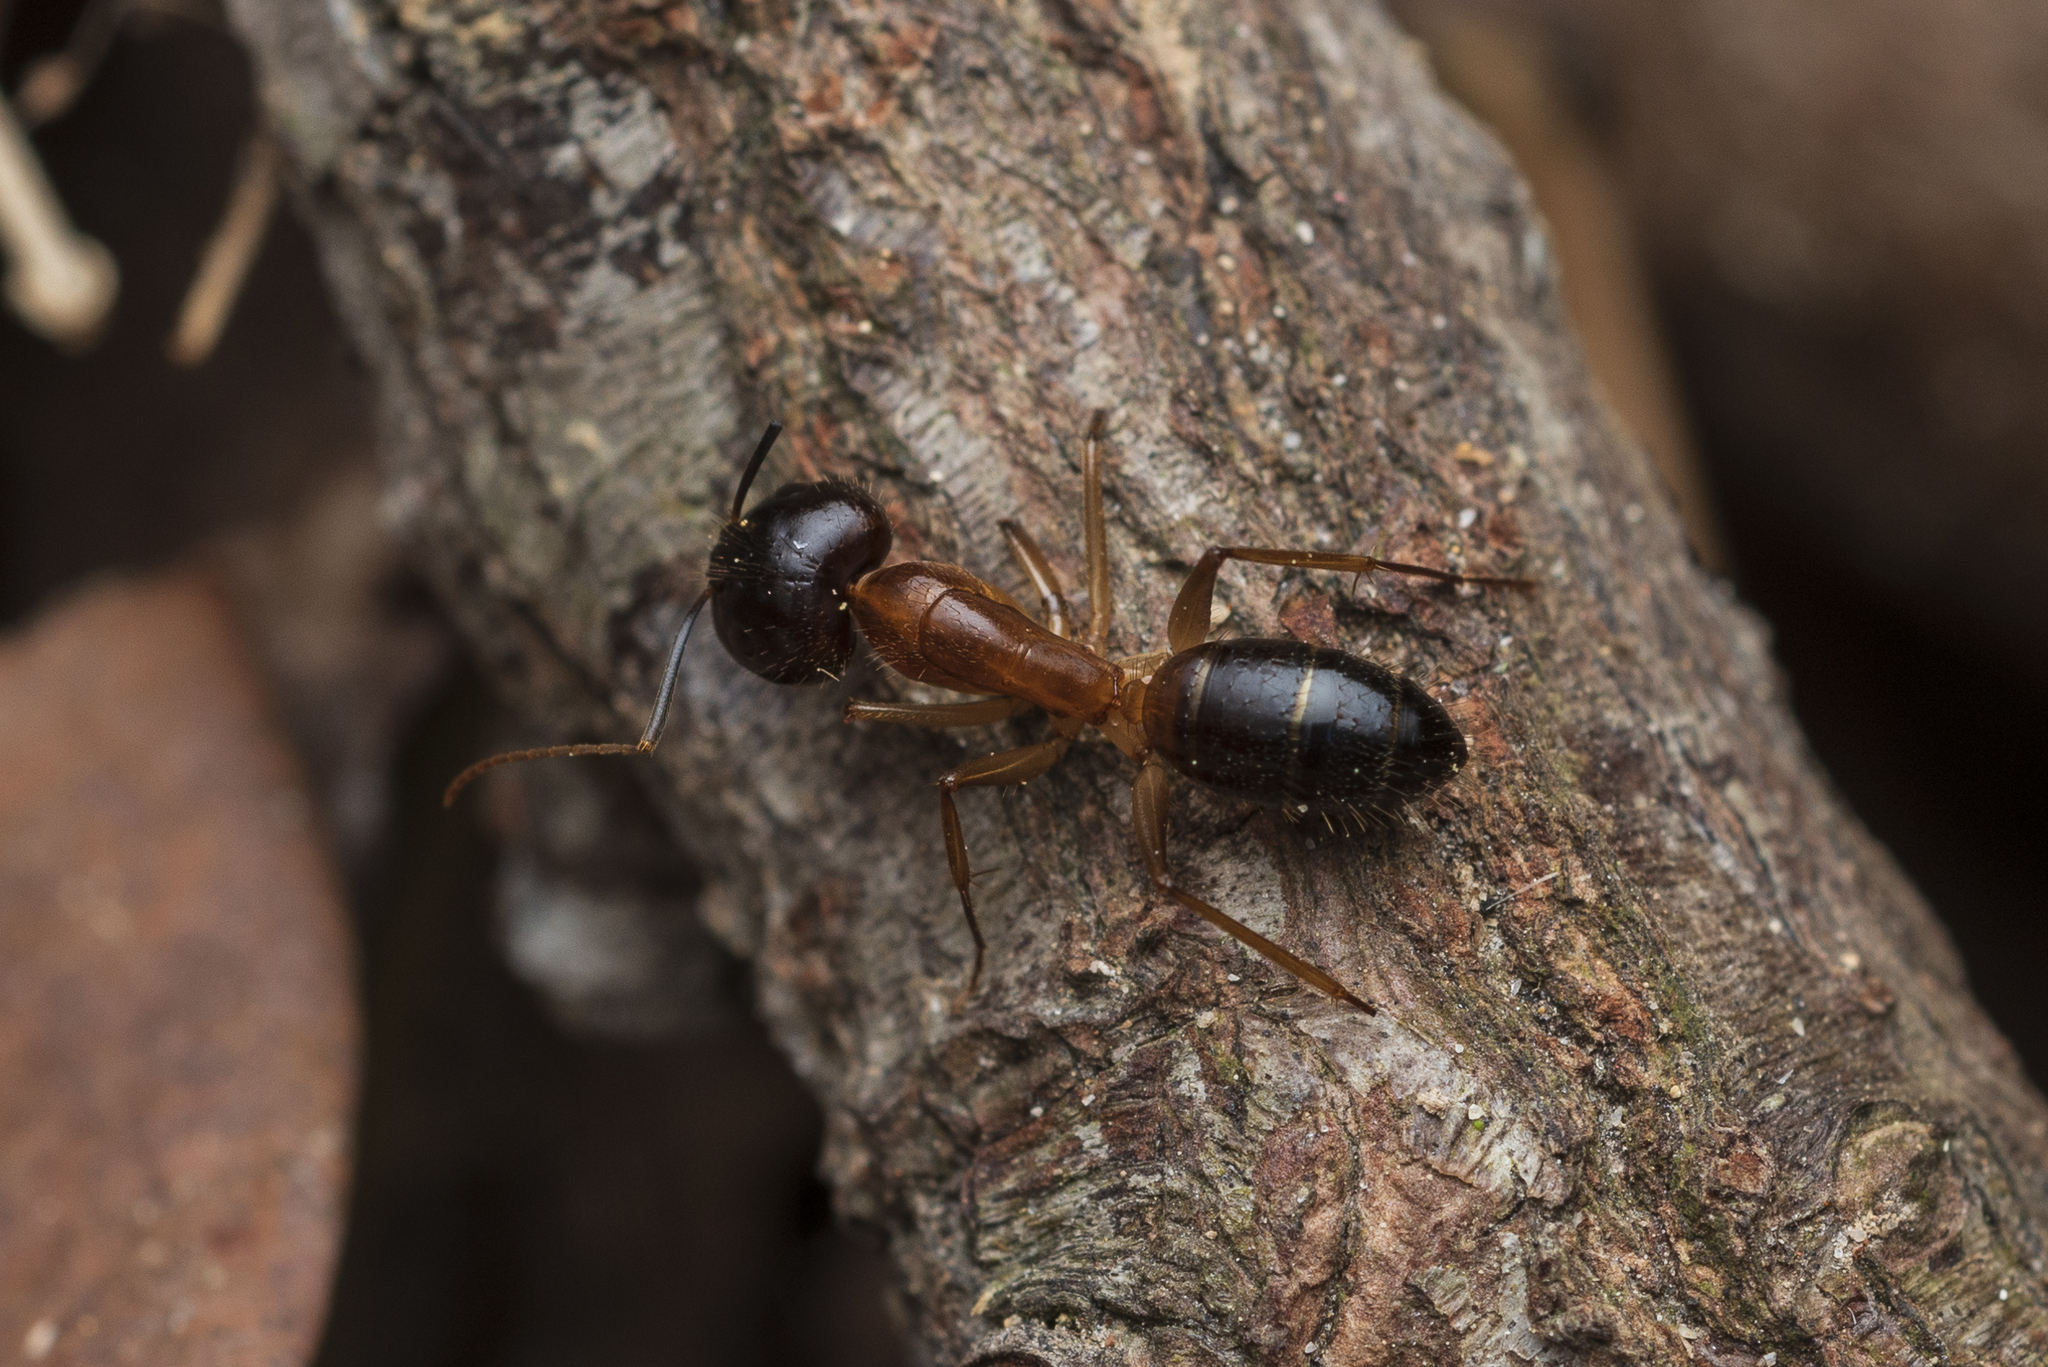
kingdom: Animalia
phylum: Arthropoda
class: Insecta
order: Hymenoptera
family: Formicidae
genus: Camponotus
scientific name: Camponotus pseudoirritans
